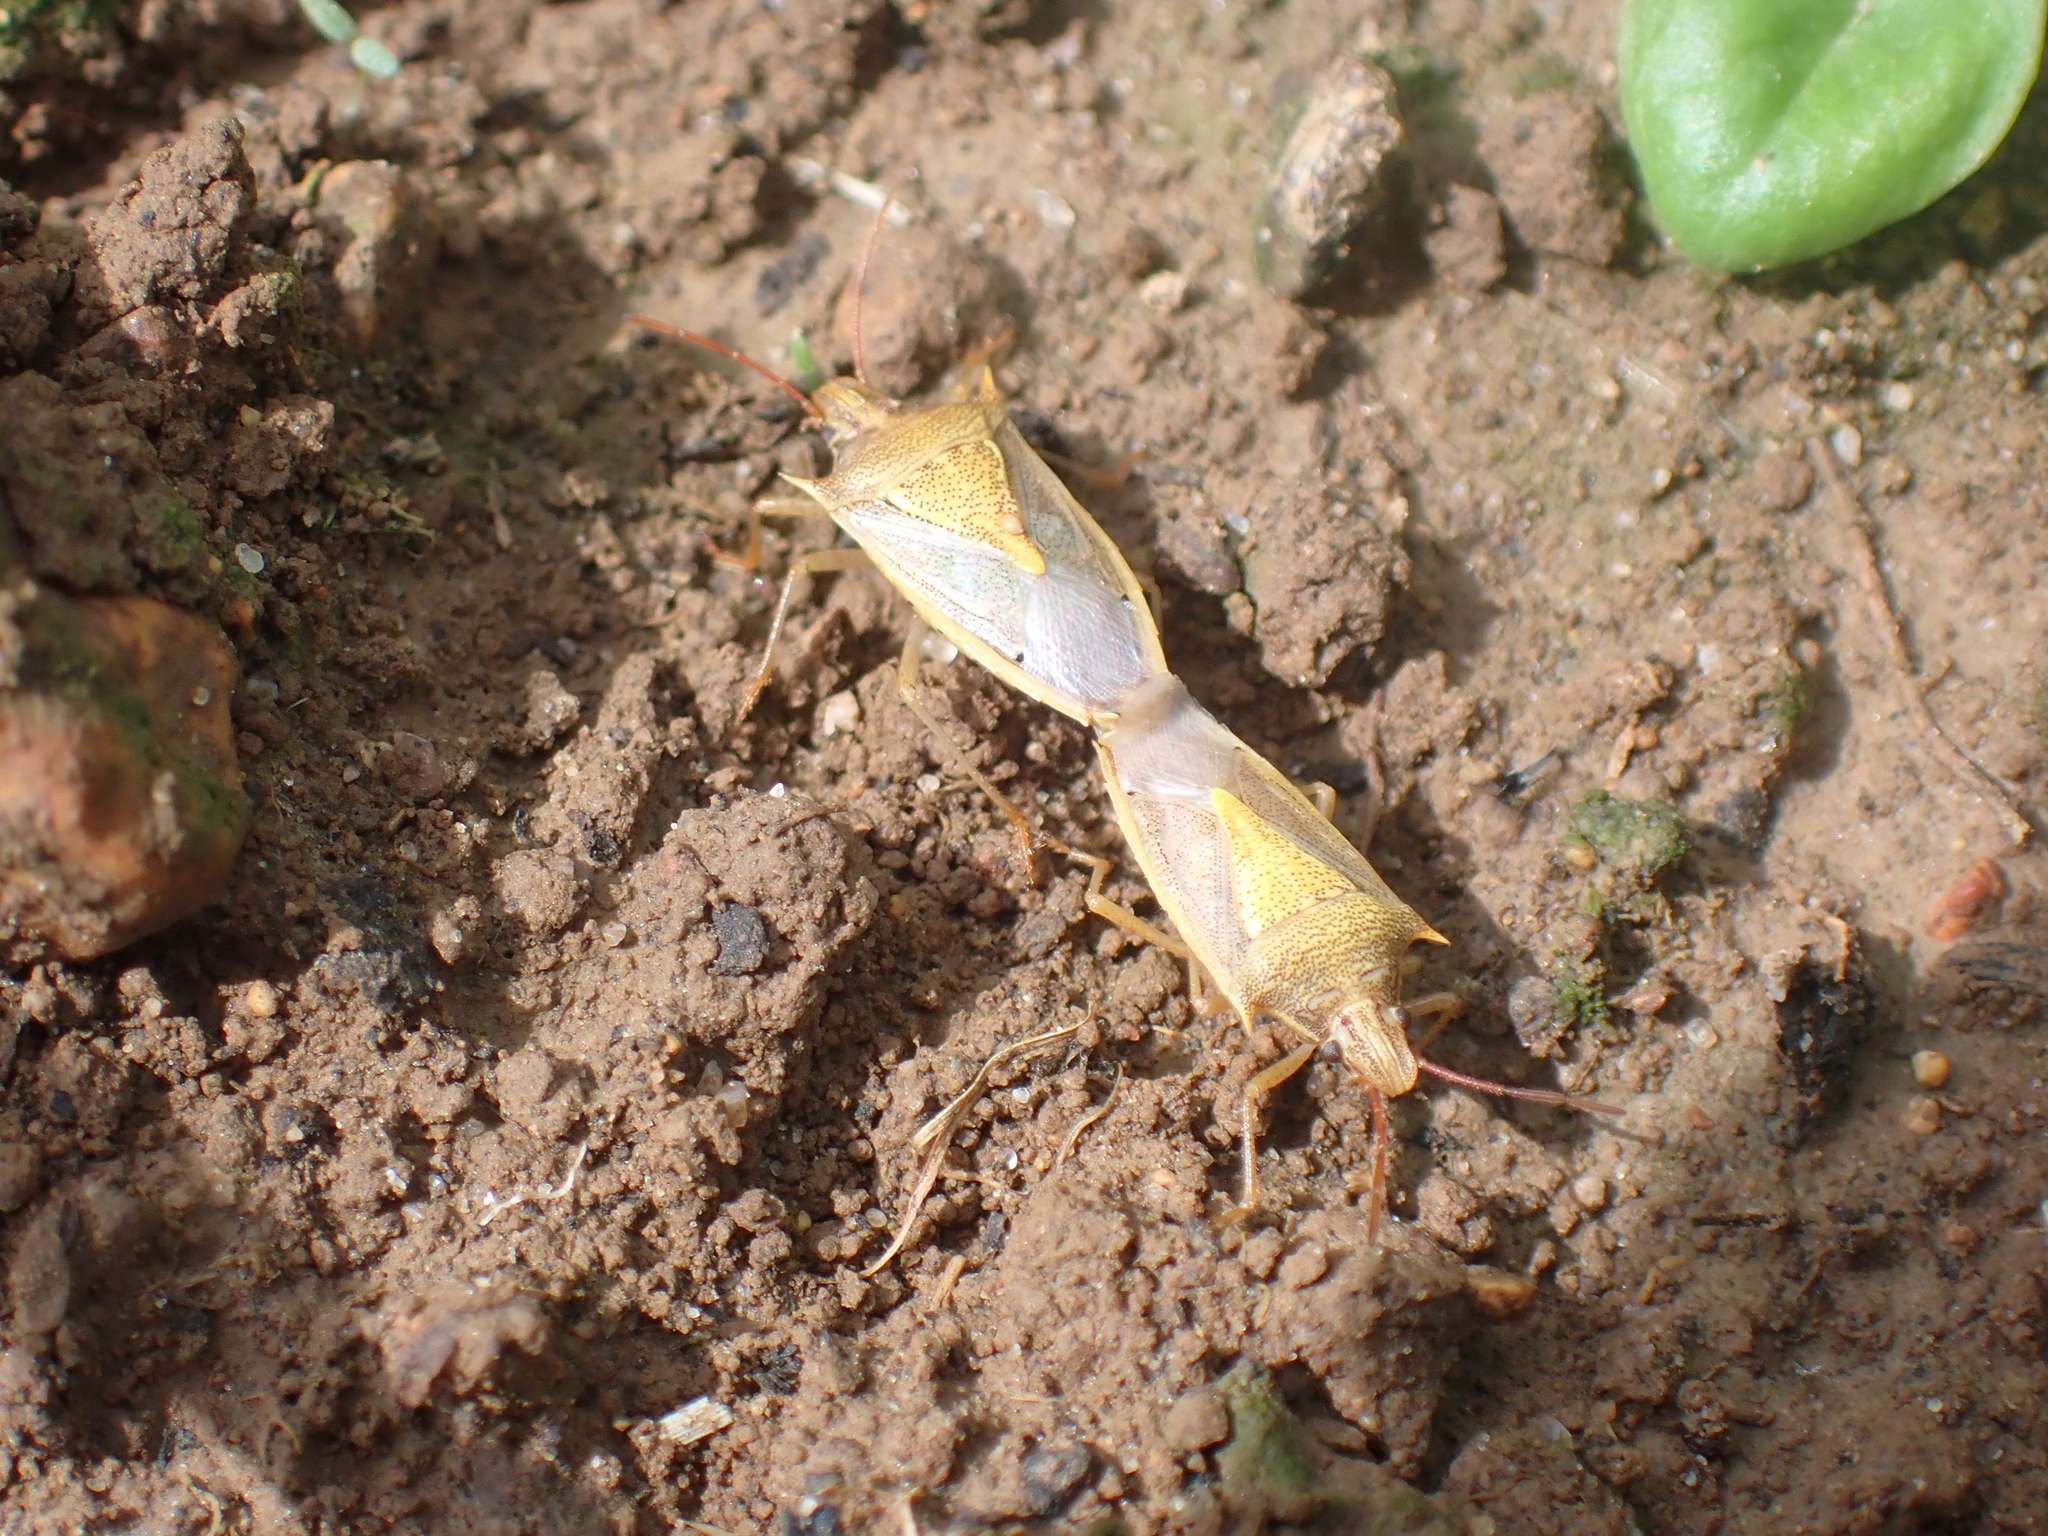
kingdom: Animalia
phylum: Arthropoda
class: Insecta
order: Hemiptera
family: Pentatomidae
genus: Oebalus
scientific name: Oebalus pugnax
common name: Rice stink bug
